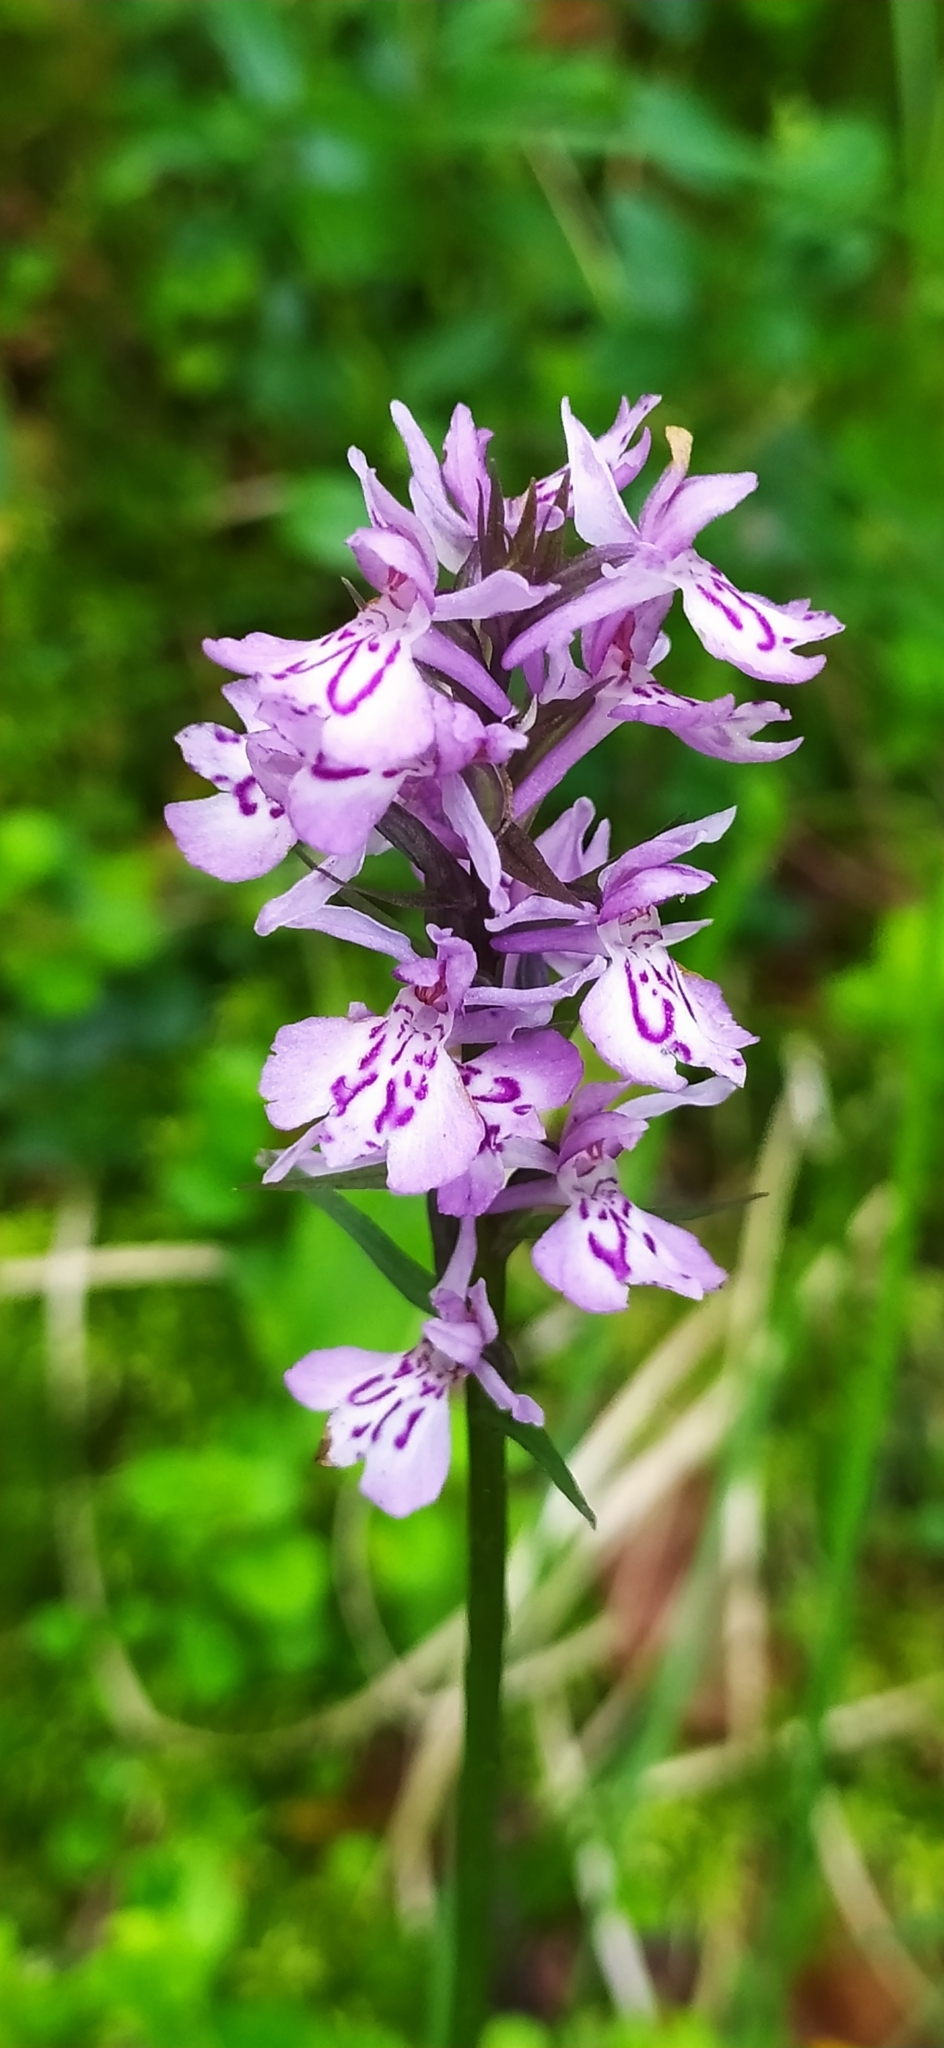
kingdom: Plantae
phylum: Tracheophyta
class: Liliopsida
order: Asparagales
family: Orchidaceae
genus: Dactylorhiza
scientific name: Dactylorhiza maculata
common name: Heath spotted-orchid
